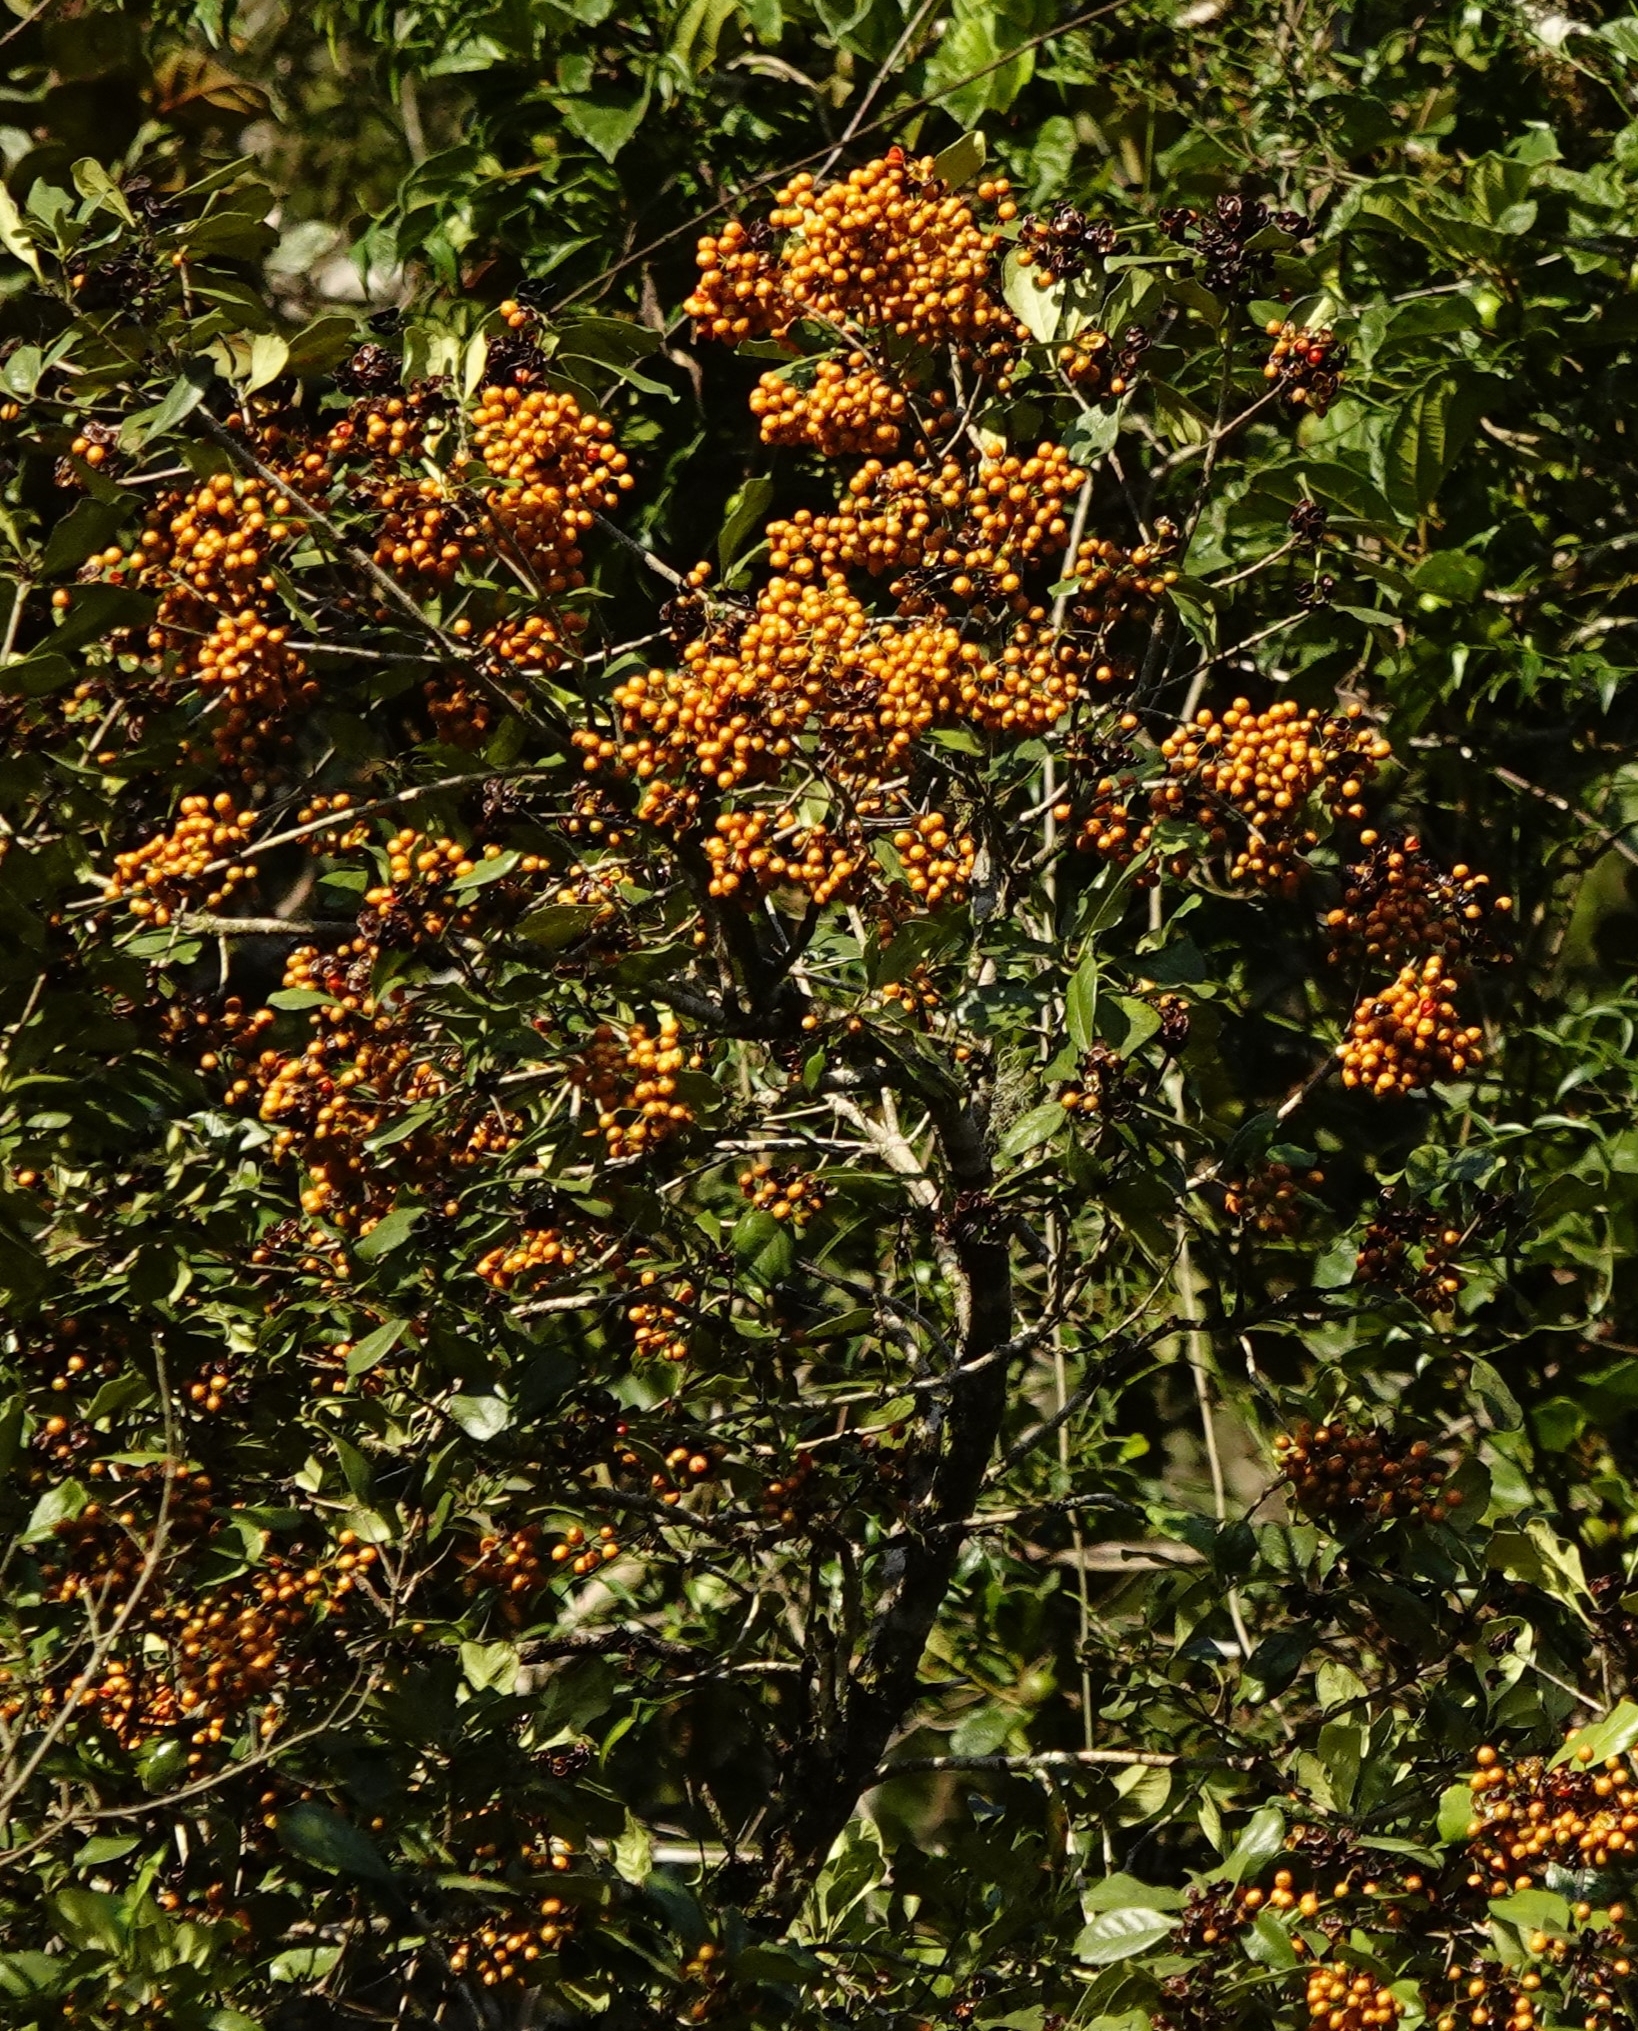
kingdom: Plantae
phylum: Tracheophyta
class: Magnoliopsida
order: Apiales
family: Pittosporaceae
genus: Pittosporum
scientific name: Pittosporum viridiflorum
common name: Cape cheesewood
